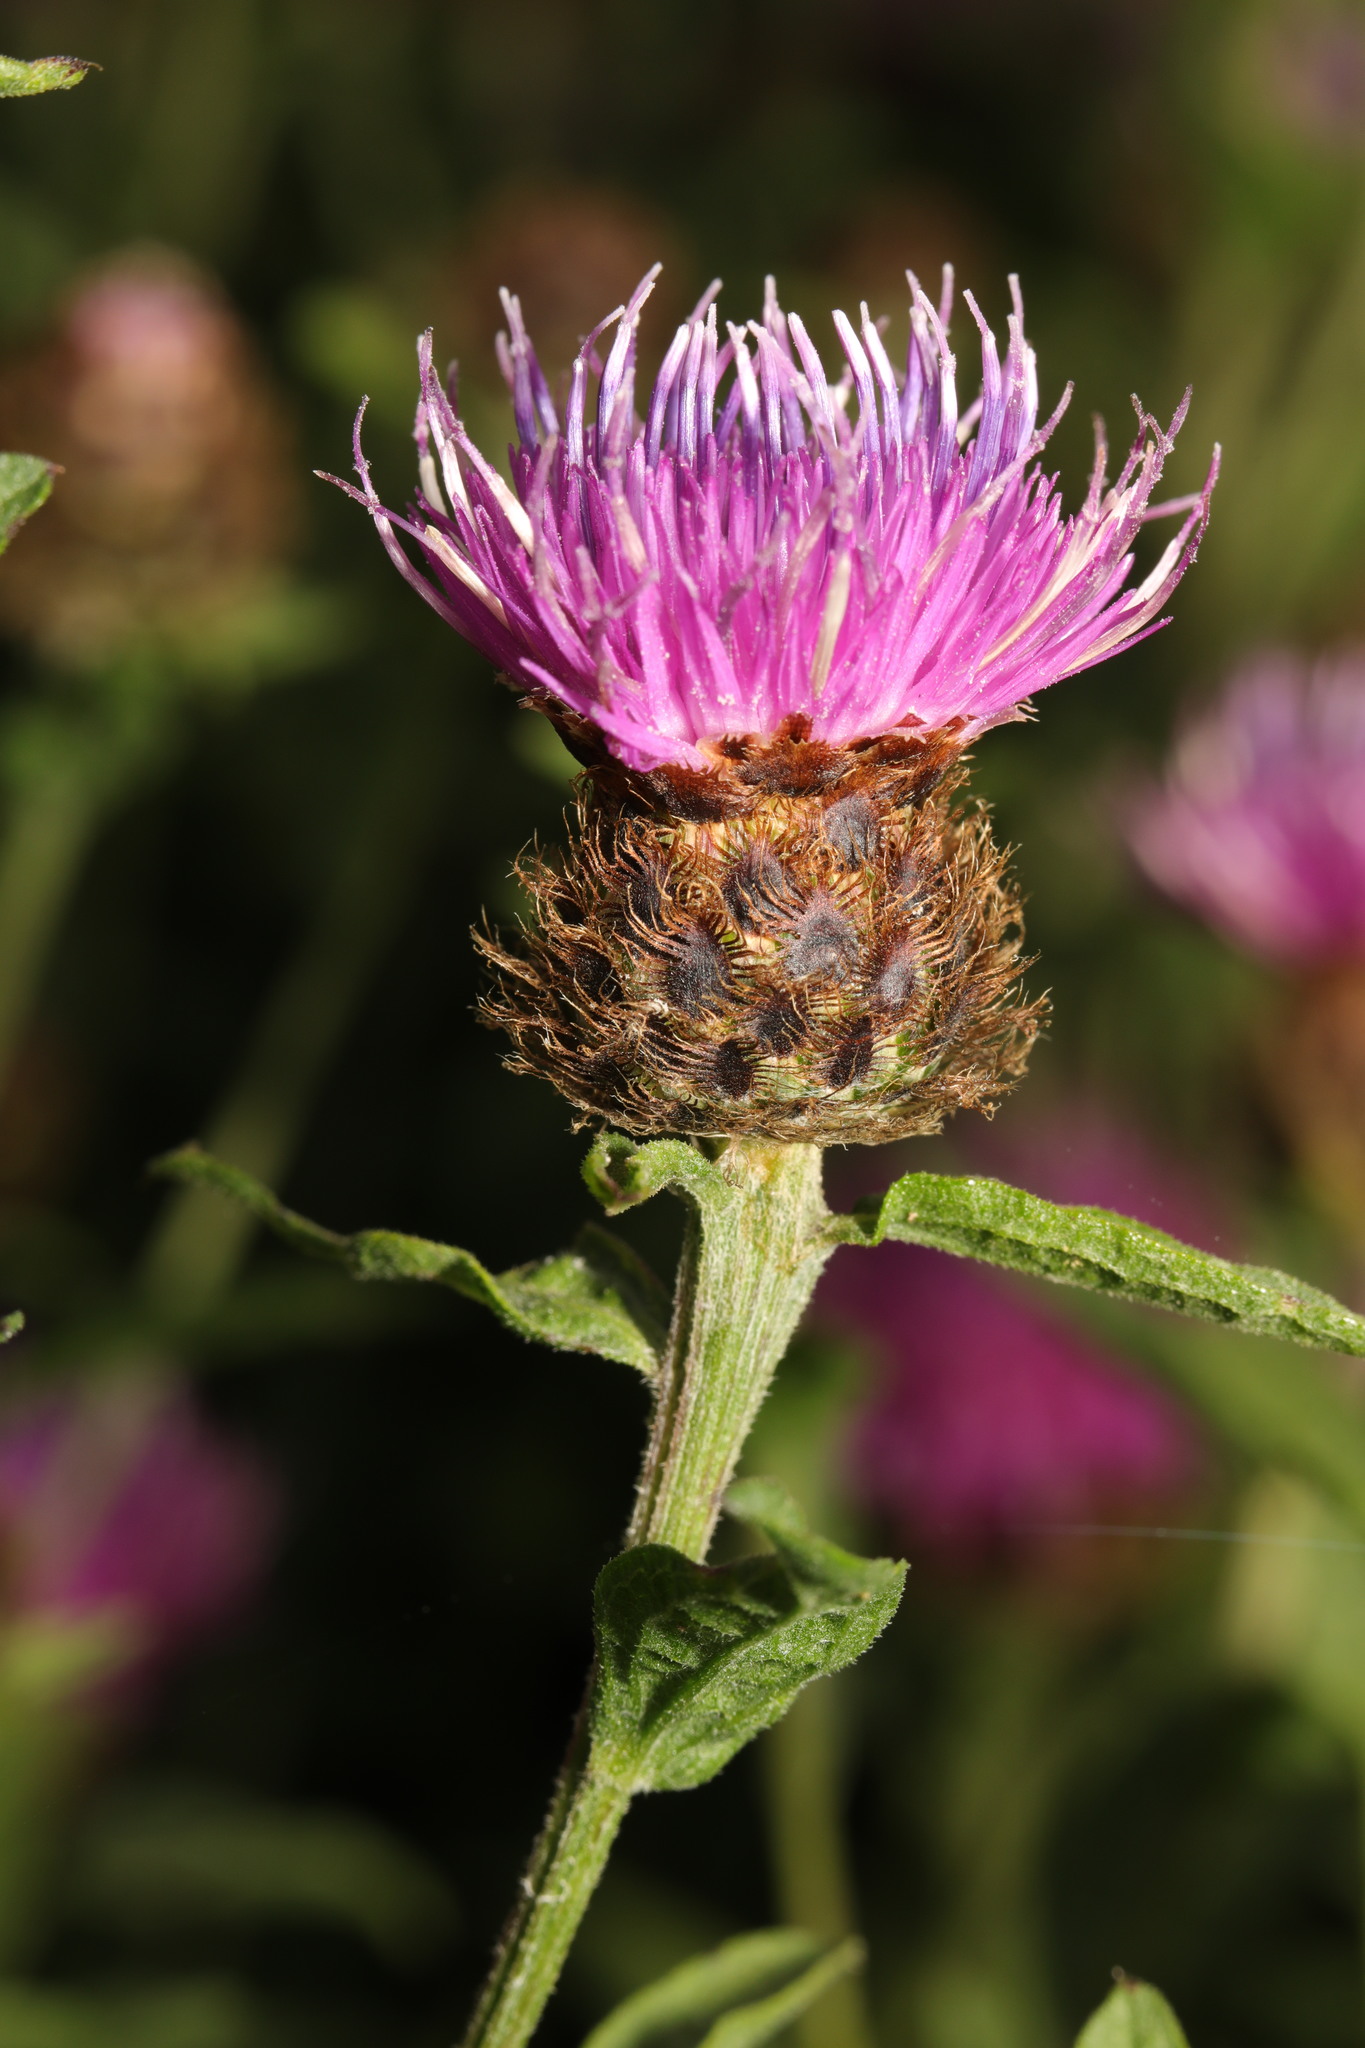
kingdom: Plantae
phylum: Tracheophyta
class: Magnoliopsida
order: Asterales
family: Asteraceae
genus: Centaurea
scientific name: Centaurea nigra
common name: Lesser knapweed
